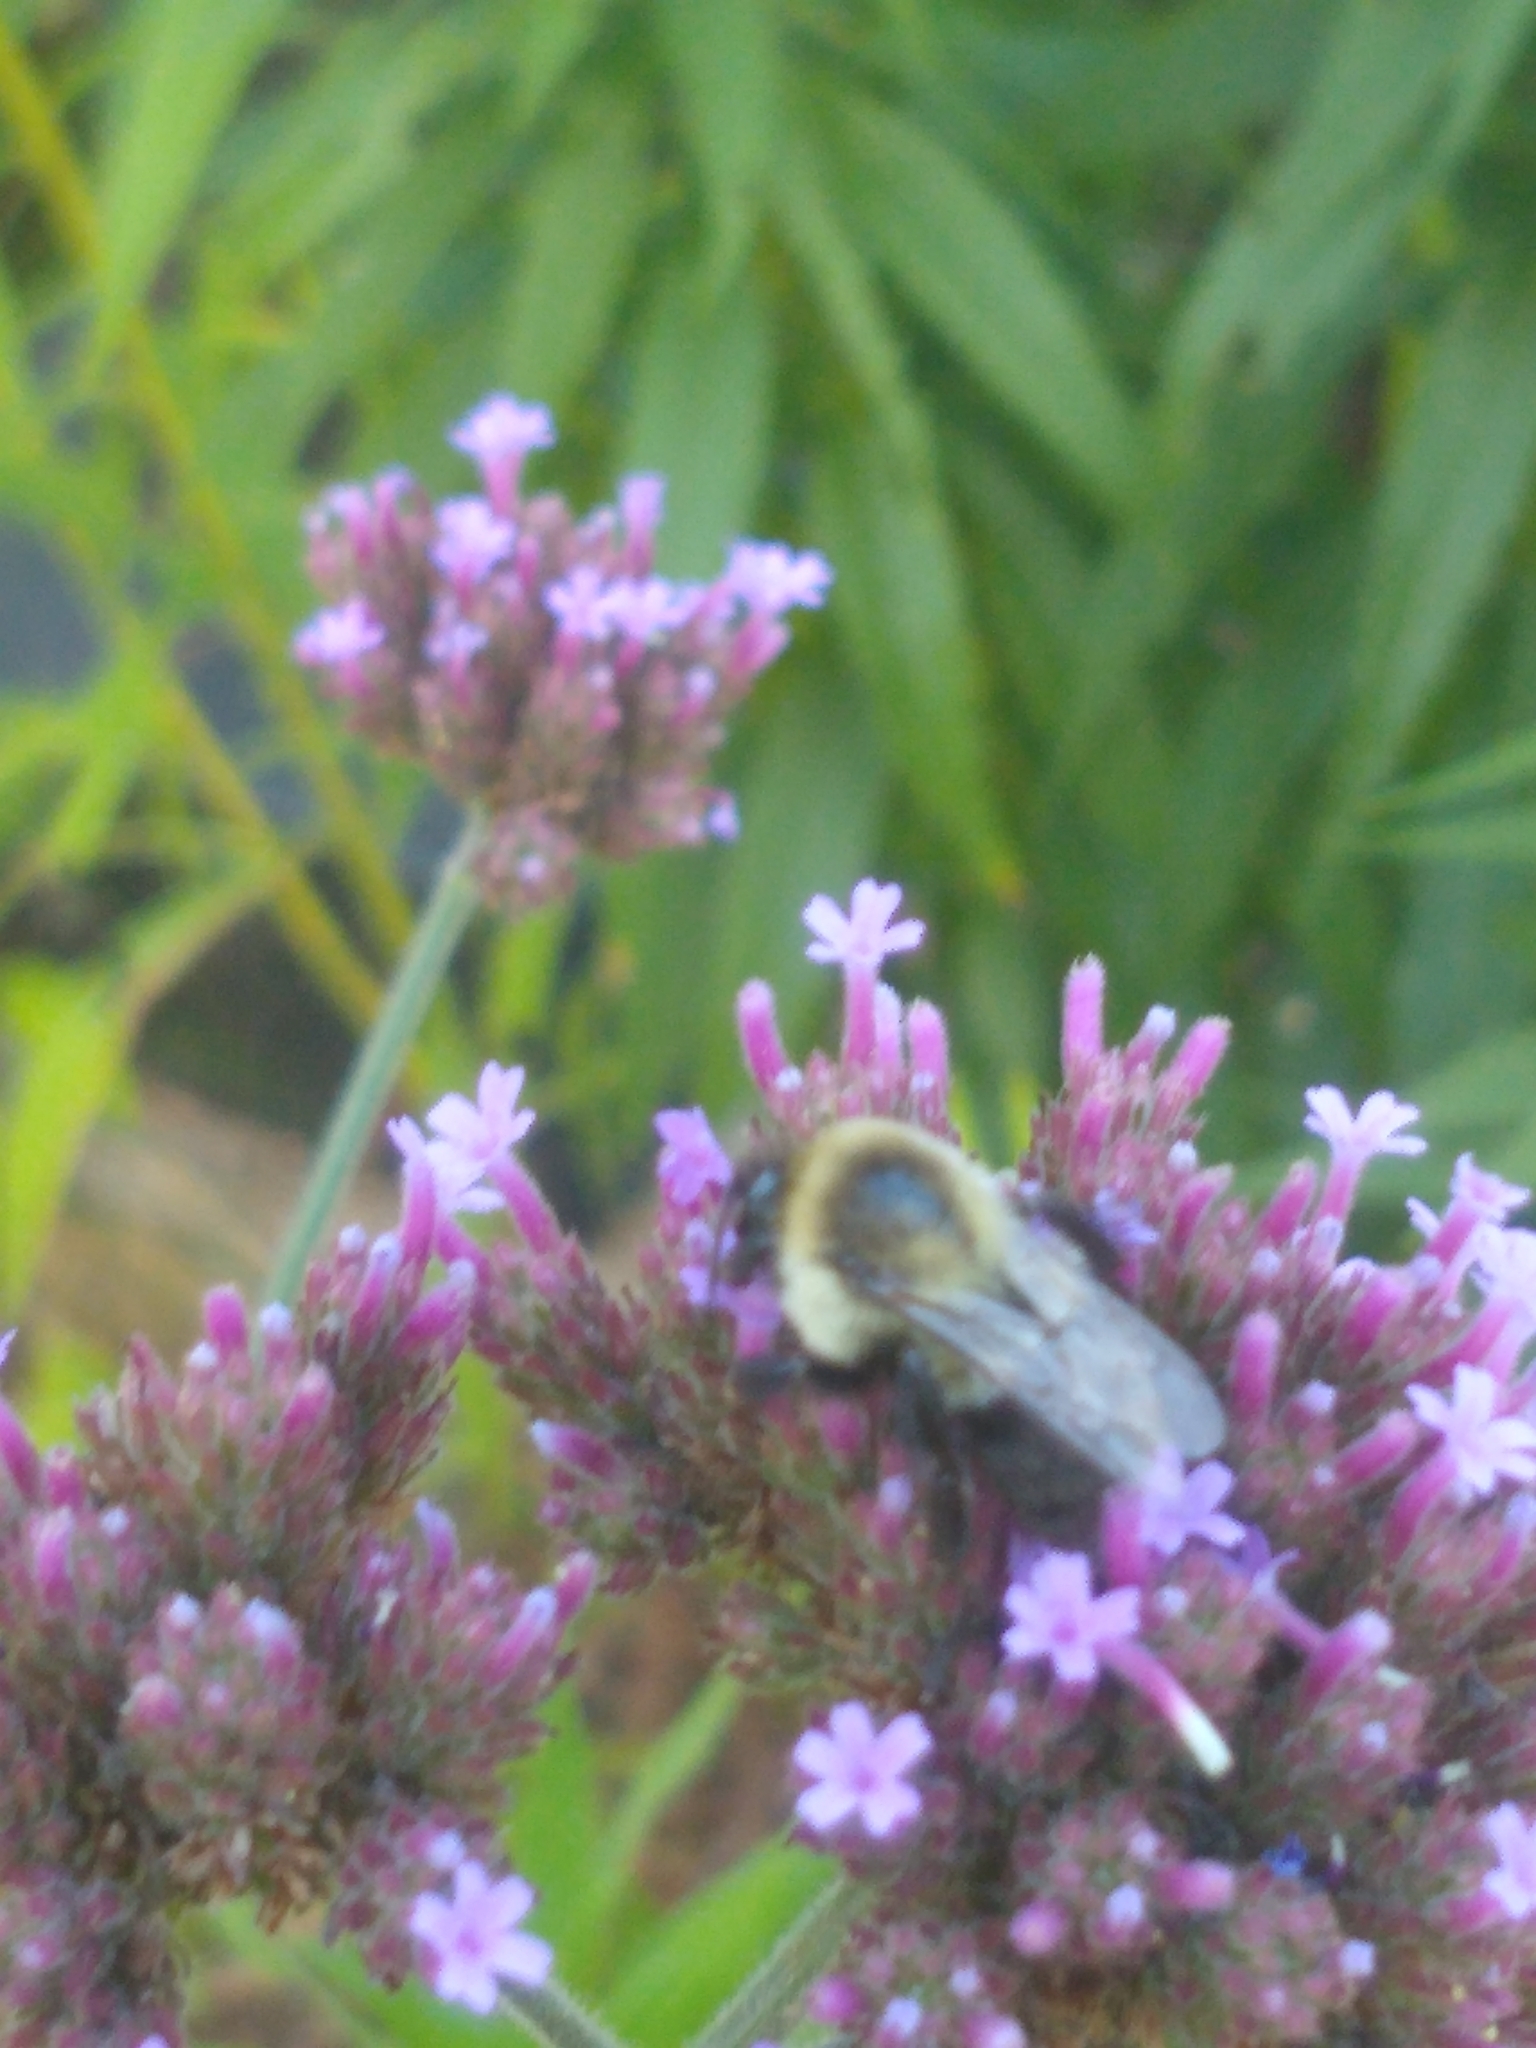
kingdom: Animalia
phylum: Arthropoda
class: Insecta
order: Hymenoptera
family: Apidae
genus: Bombus
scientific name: Bombus impatiens
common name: Common eastern bumble bee
